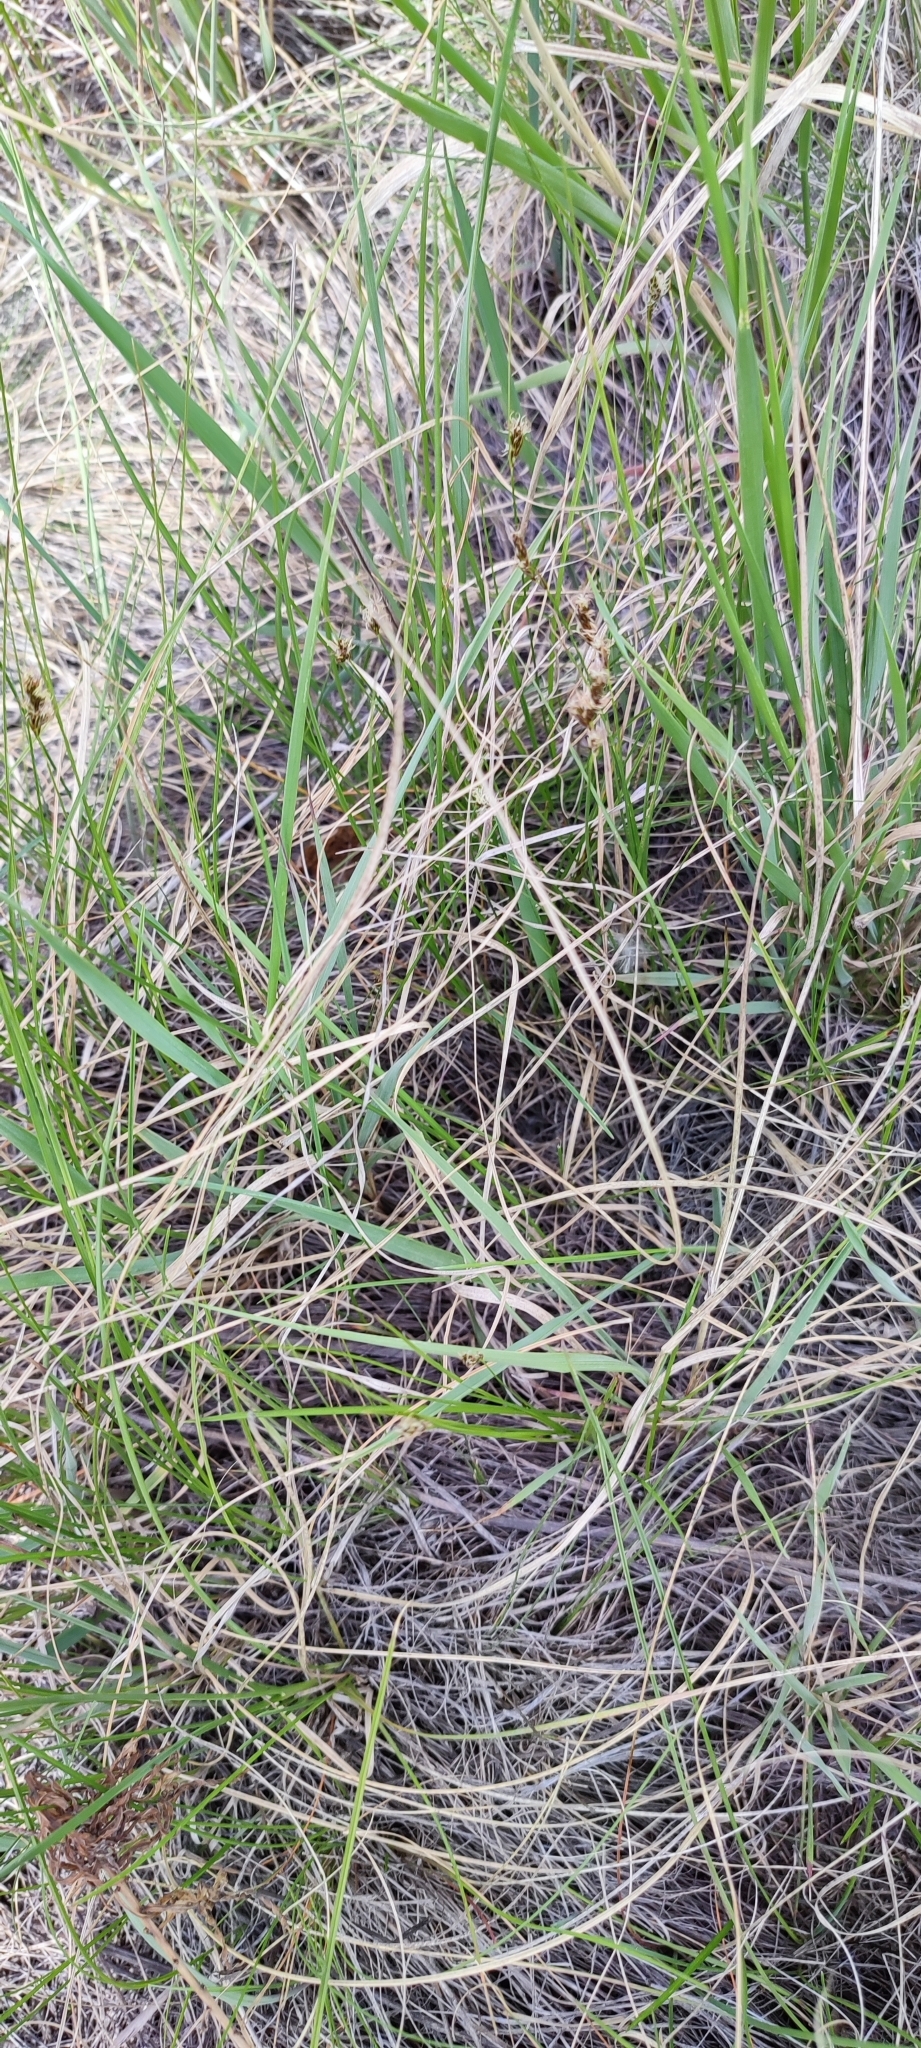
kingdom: Plantae
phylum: Tracheophyta
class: Liliopsida
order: Poales
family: Cyperaceae
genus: Carex
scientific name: Carex praecox
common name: Early sedge
